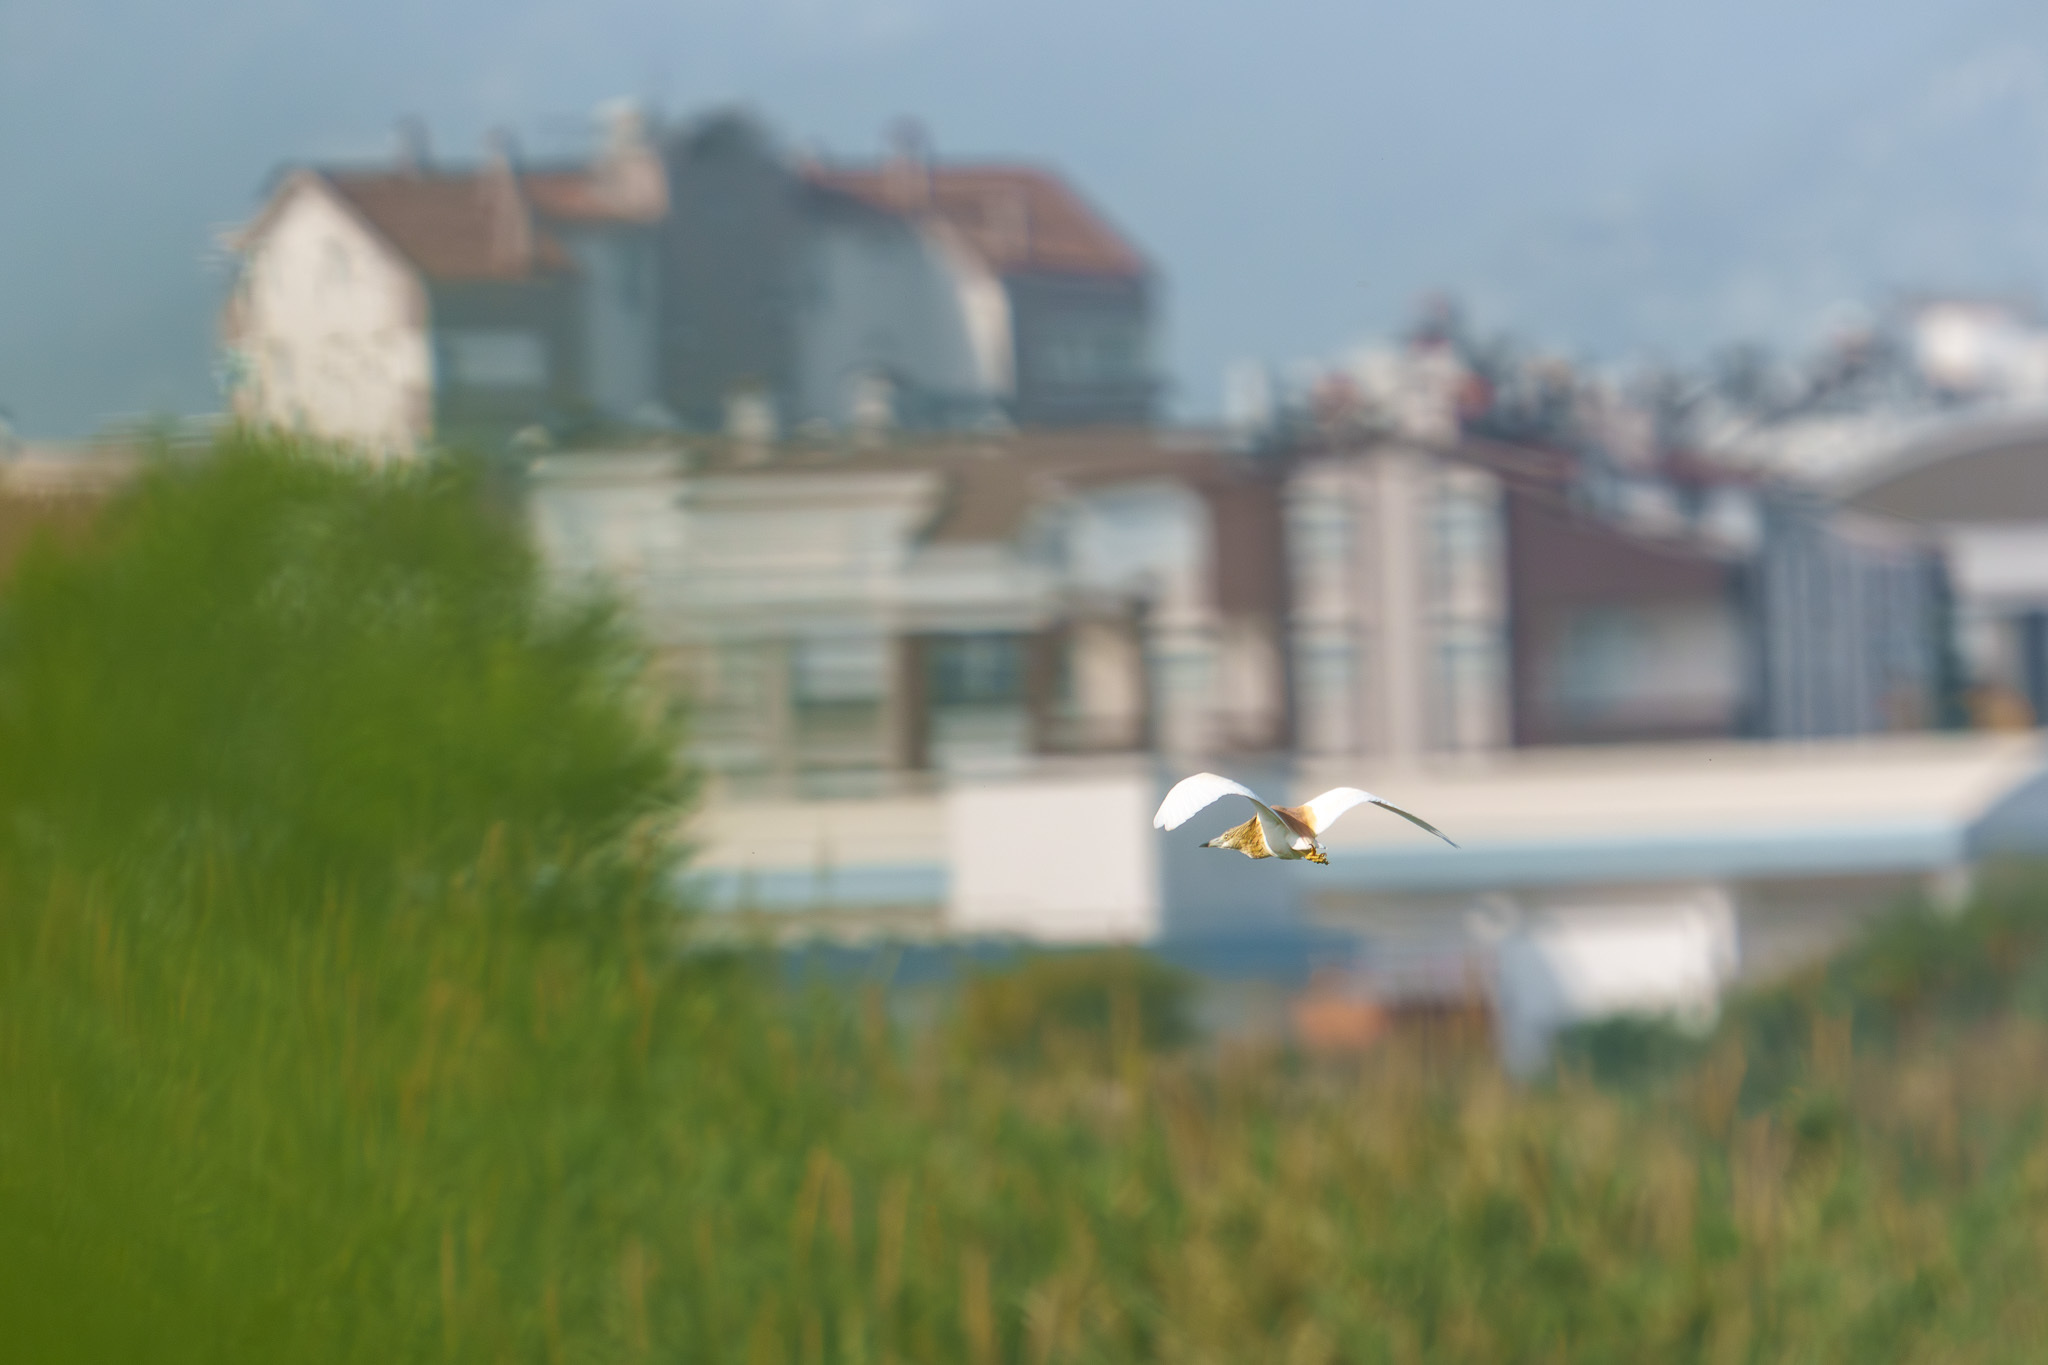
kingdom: Animalia
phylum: Chordata
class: Aves
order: Pelecaniformes
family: Ardeidae
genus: Ardeola
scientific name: Ardeola ralloides
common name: Squacco heron
